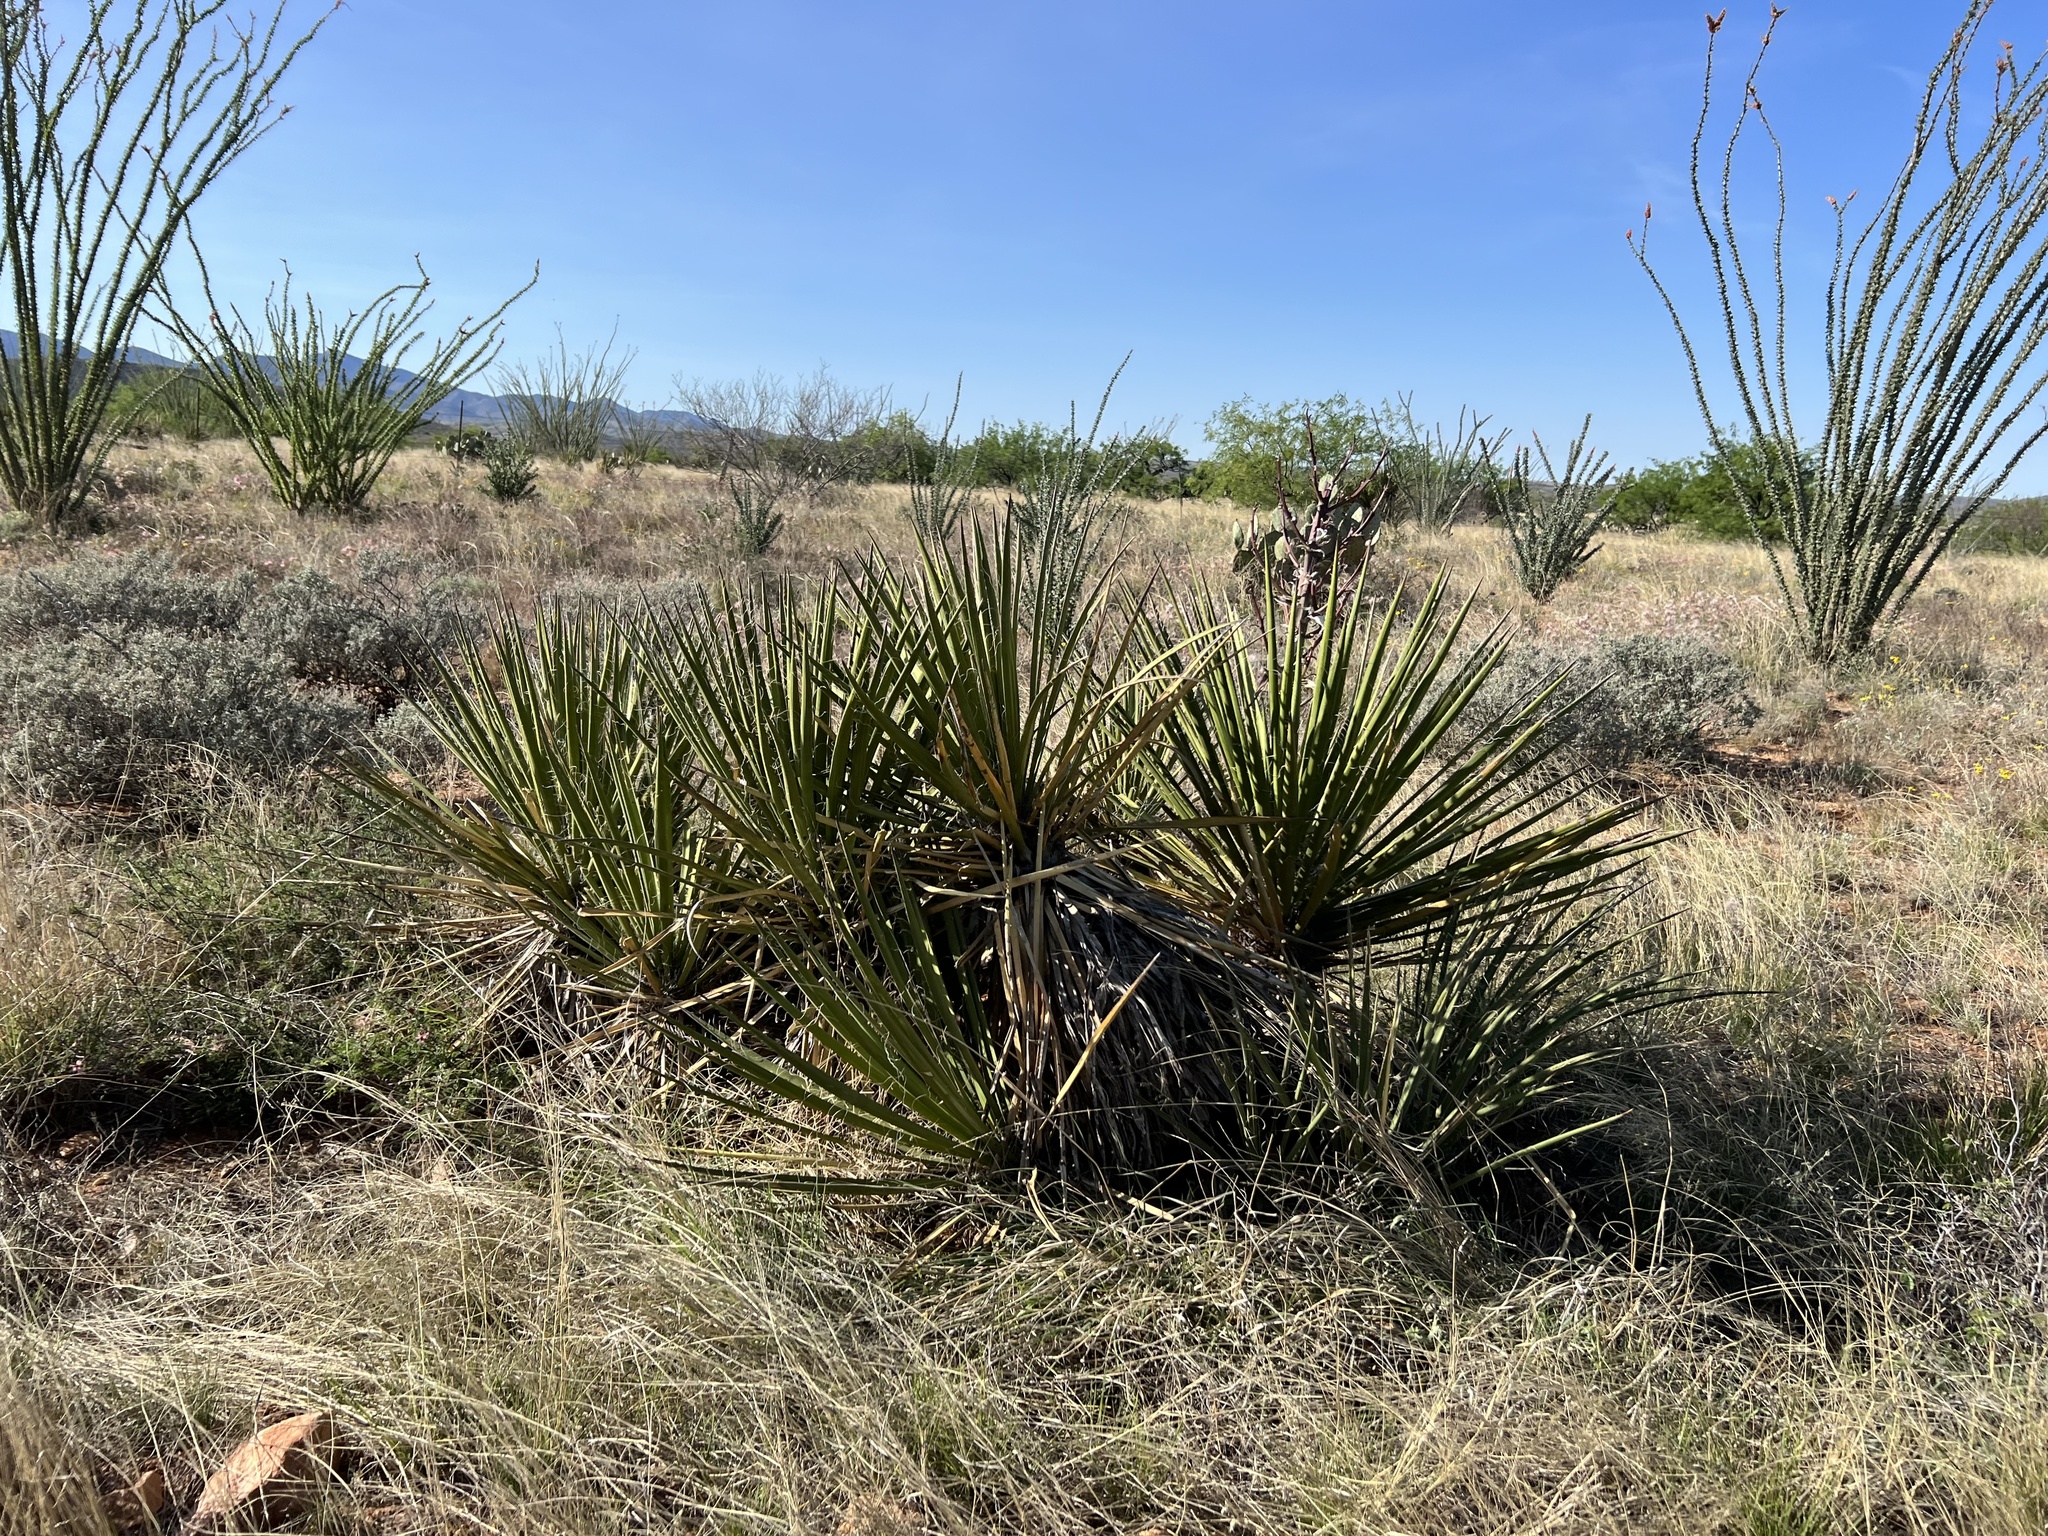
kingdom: Plantae
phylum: Tracheophyta
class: Liliopsida
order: Asparagales
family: Asparagaceae
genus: Yucca
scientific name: Yucca baccata
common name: Banana yucca
